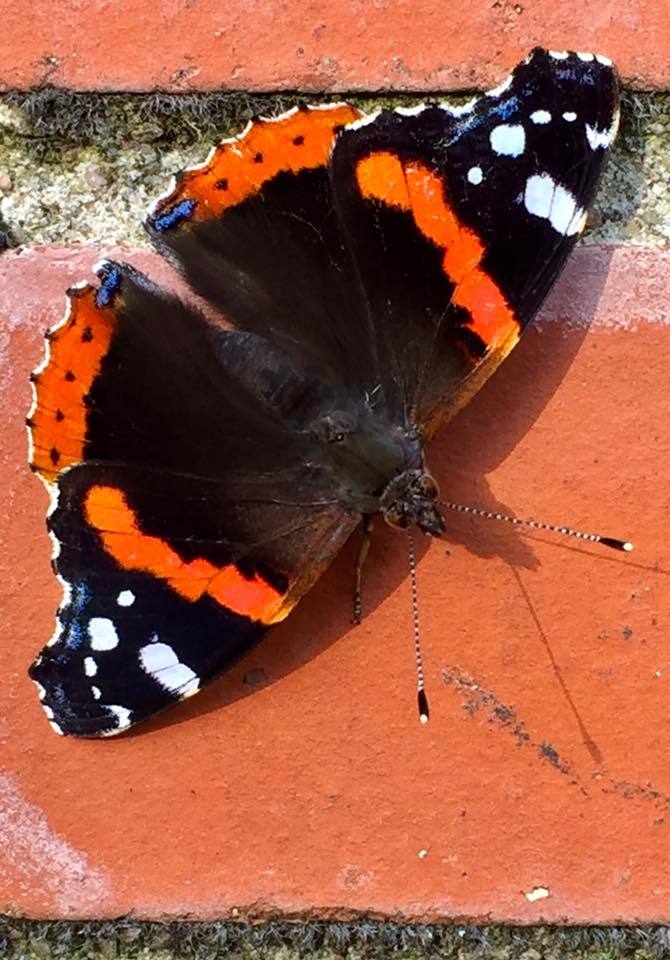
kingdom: Animalia
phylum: Arthropoda
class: Insecta
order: Lepidoptera
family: Nymphalidae
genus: Vanessa
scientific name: Vanessa atalanta
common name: Red admiral
